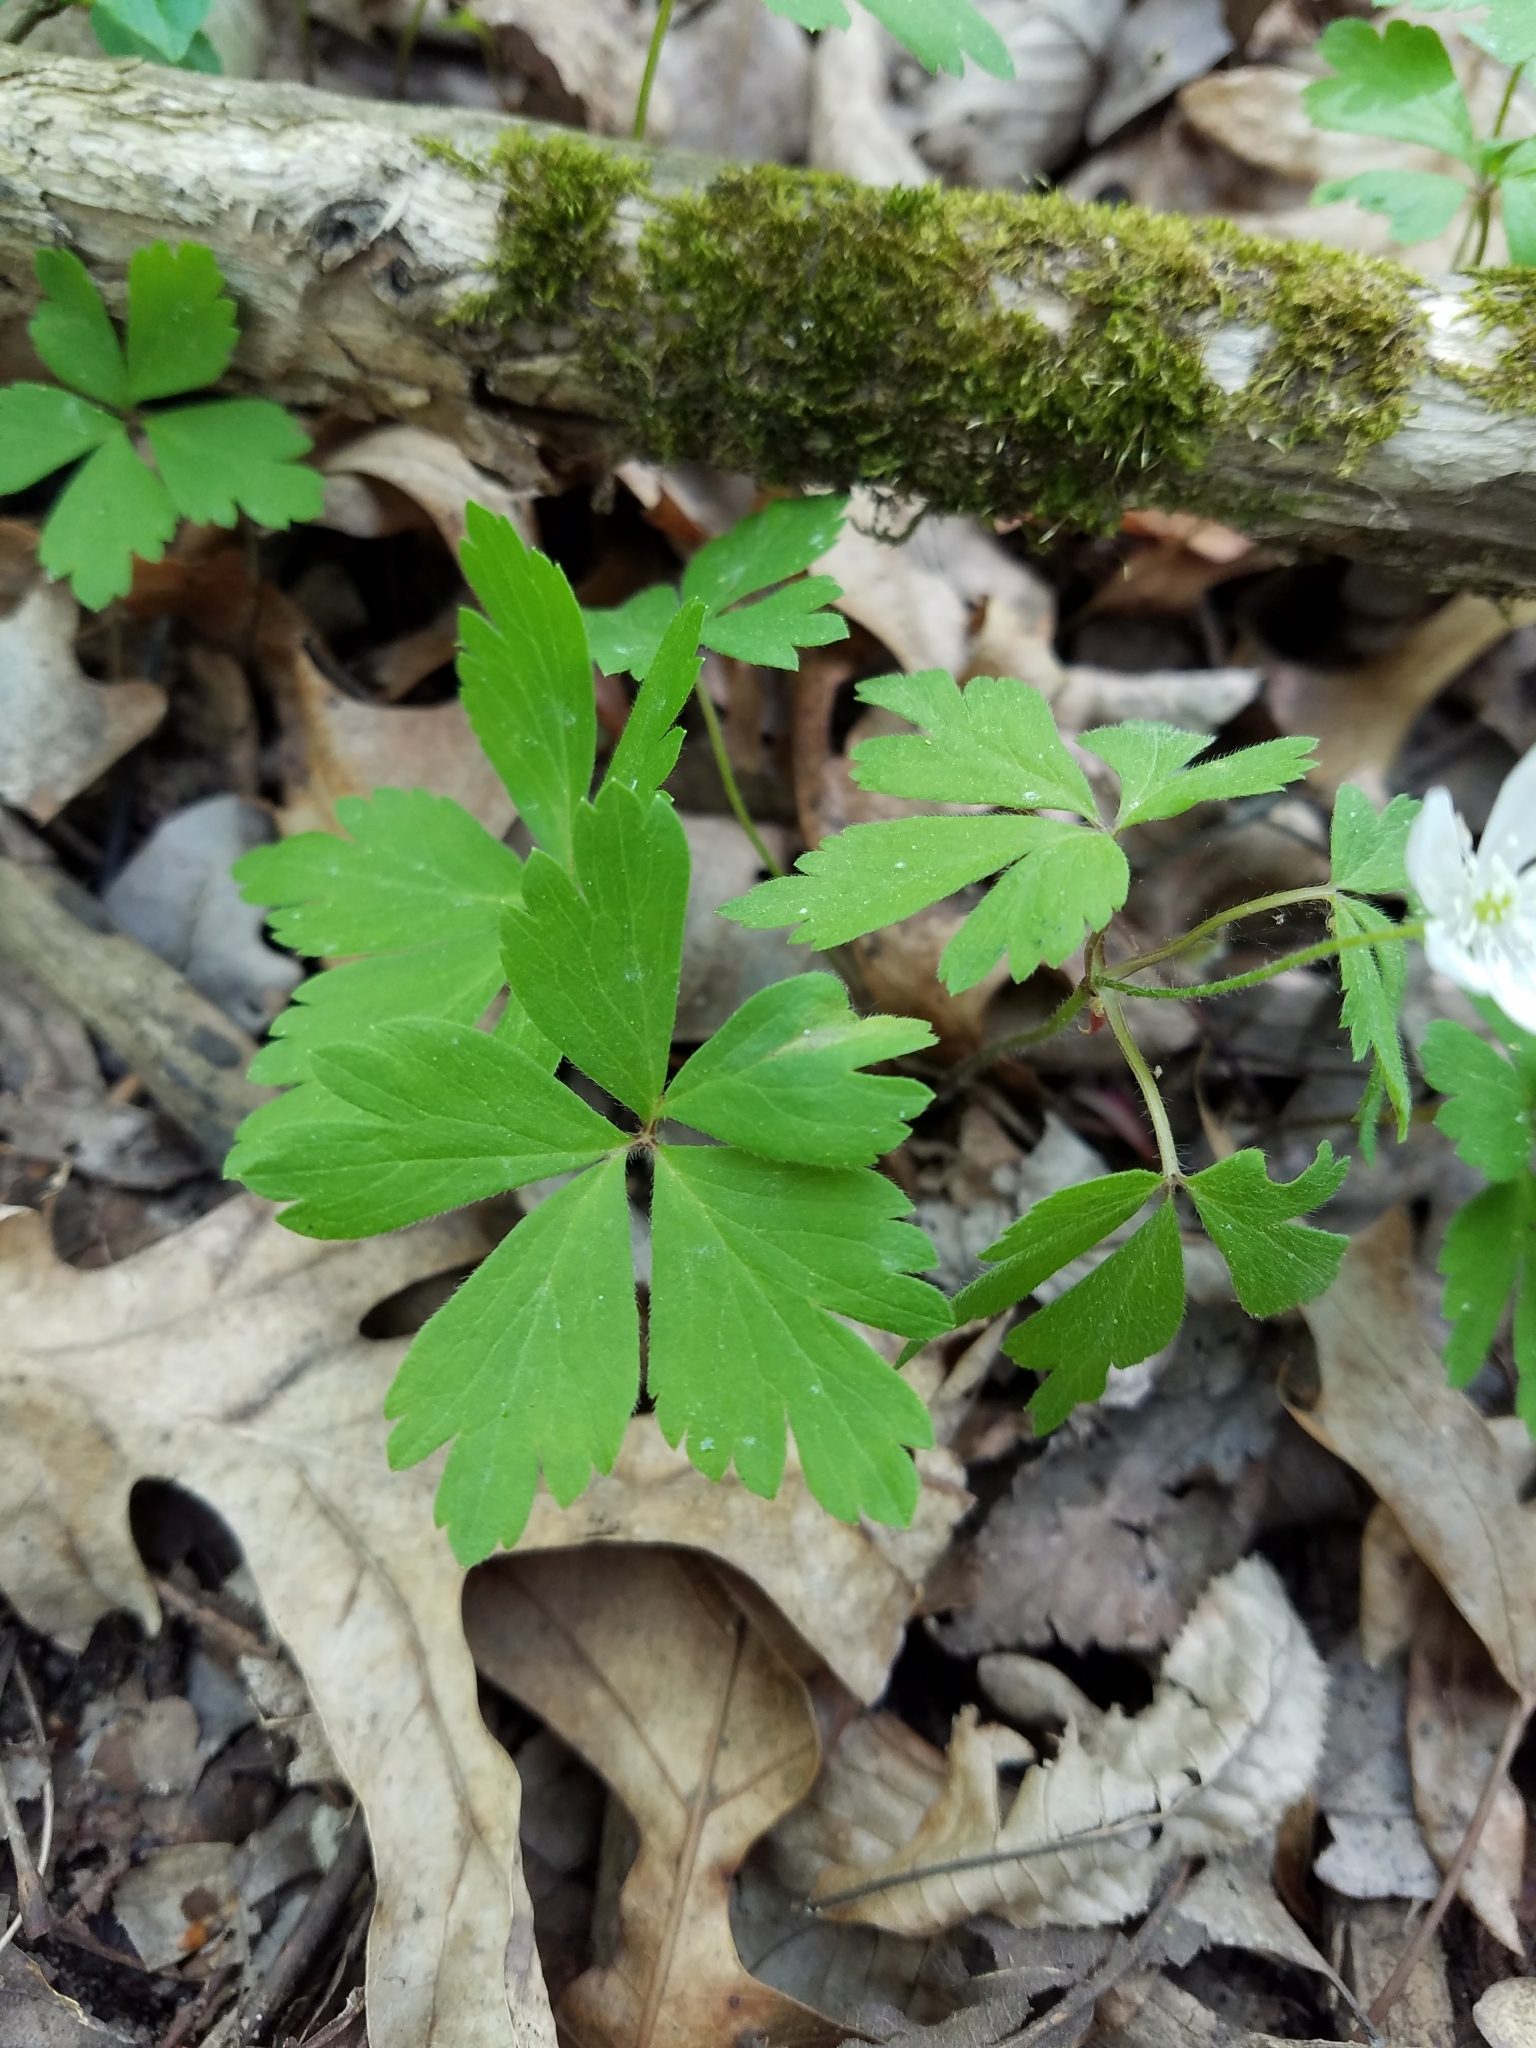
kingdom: Plantae
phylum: Tracheophyta
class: Magnoliopsida
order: Ranunculales
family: Ranunculaceae
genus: Anemone
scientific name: Anemone quinquefolia
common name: Wood anemone
